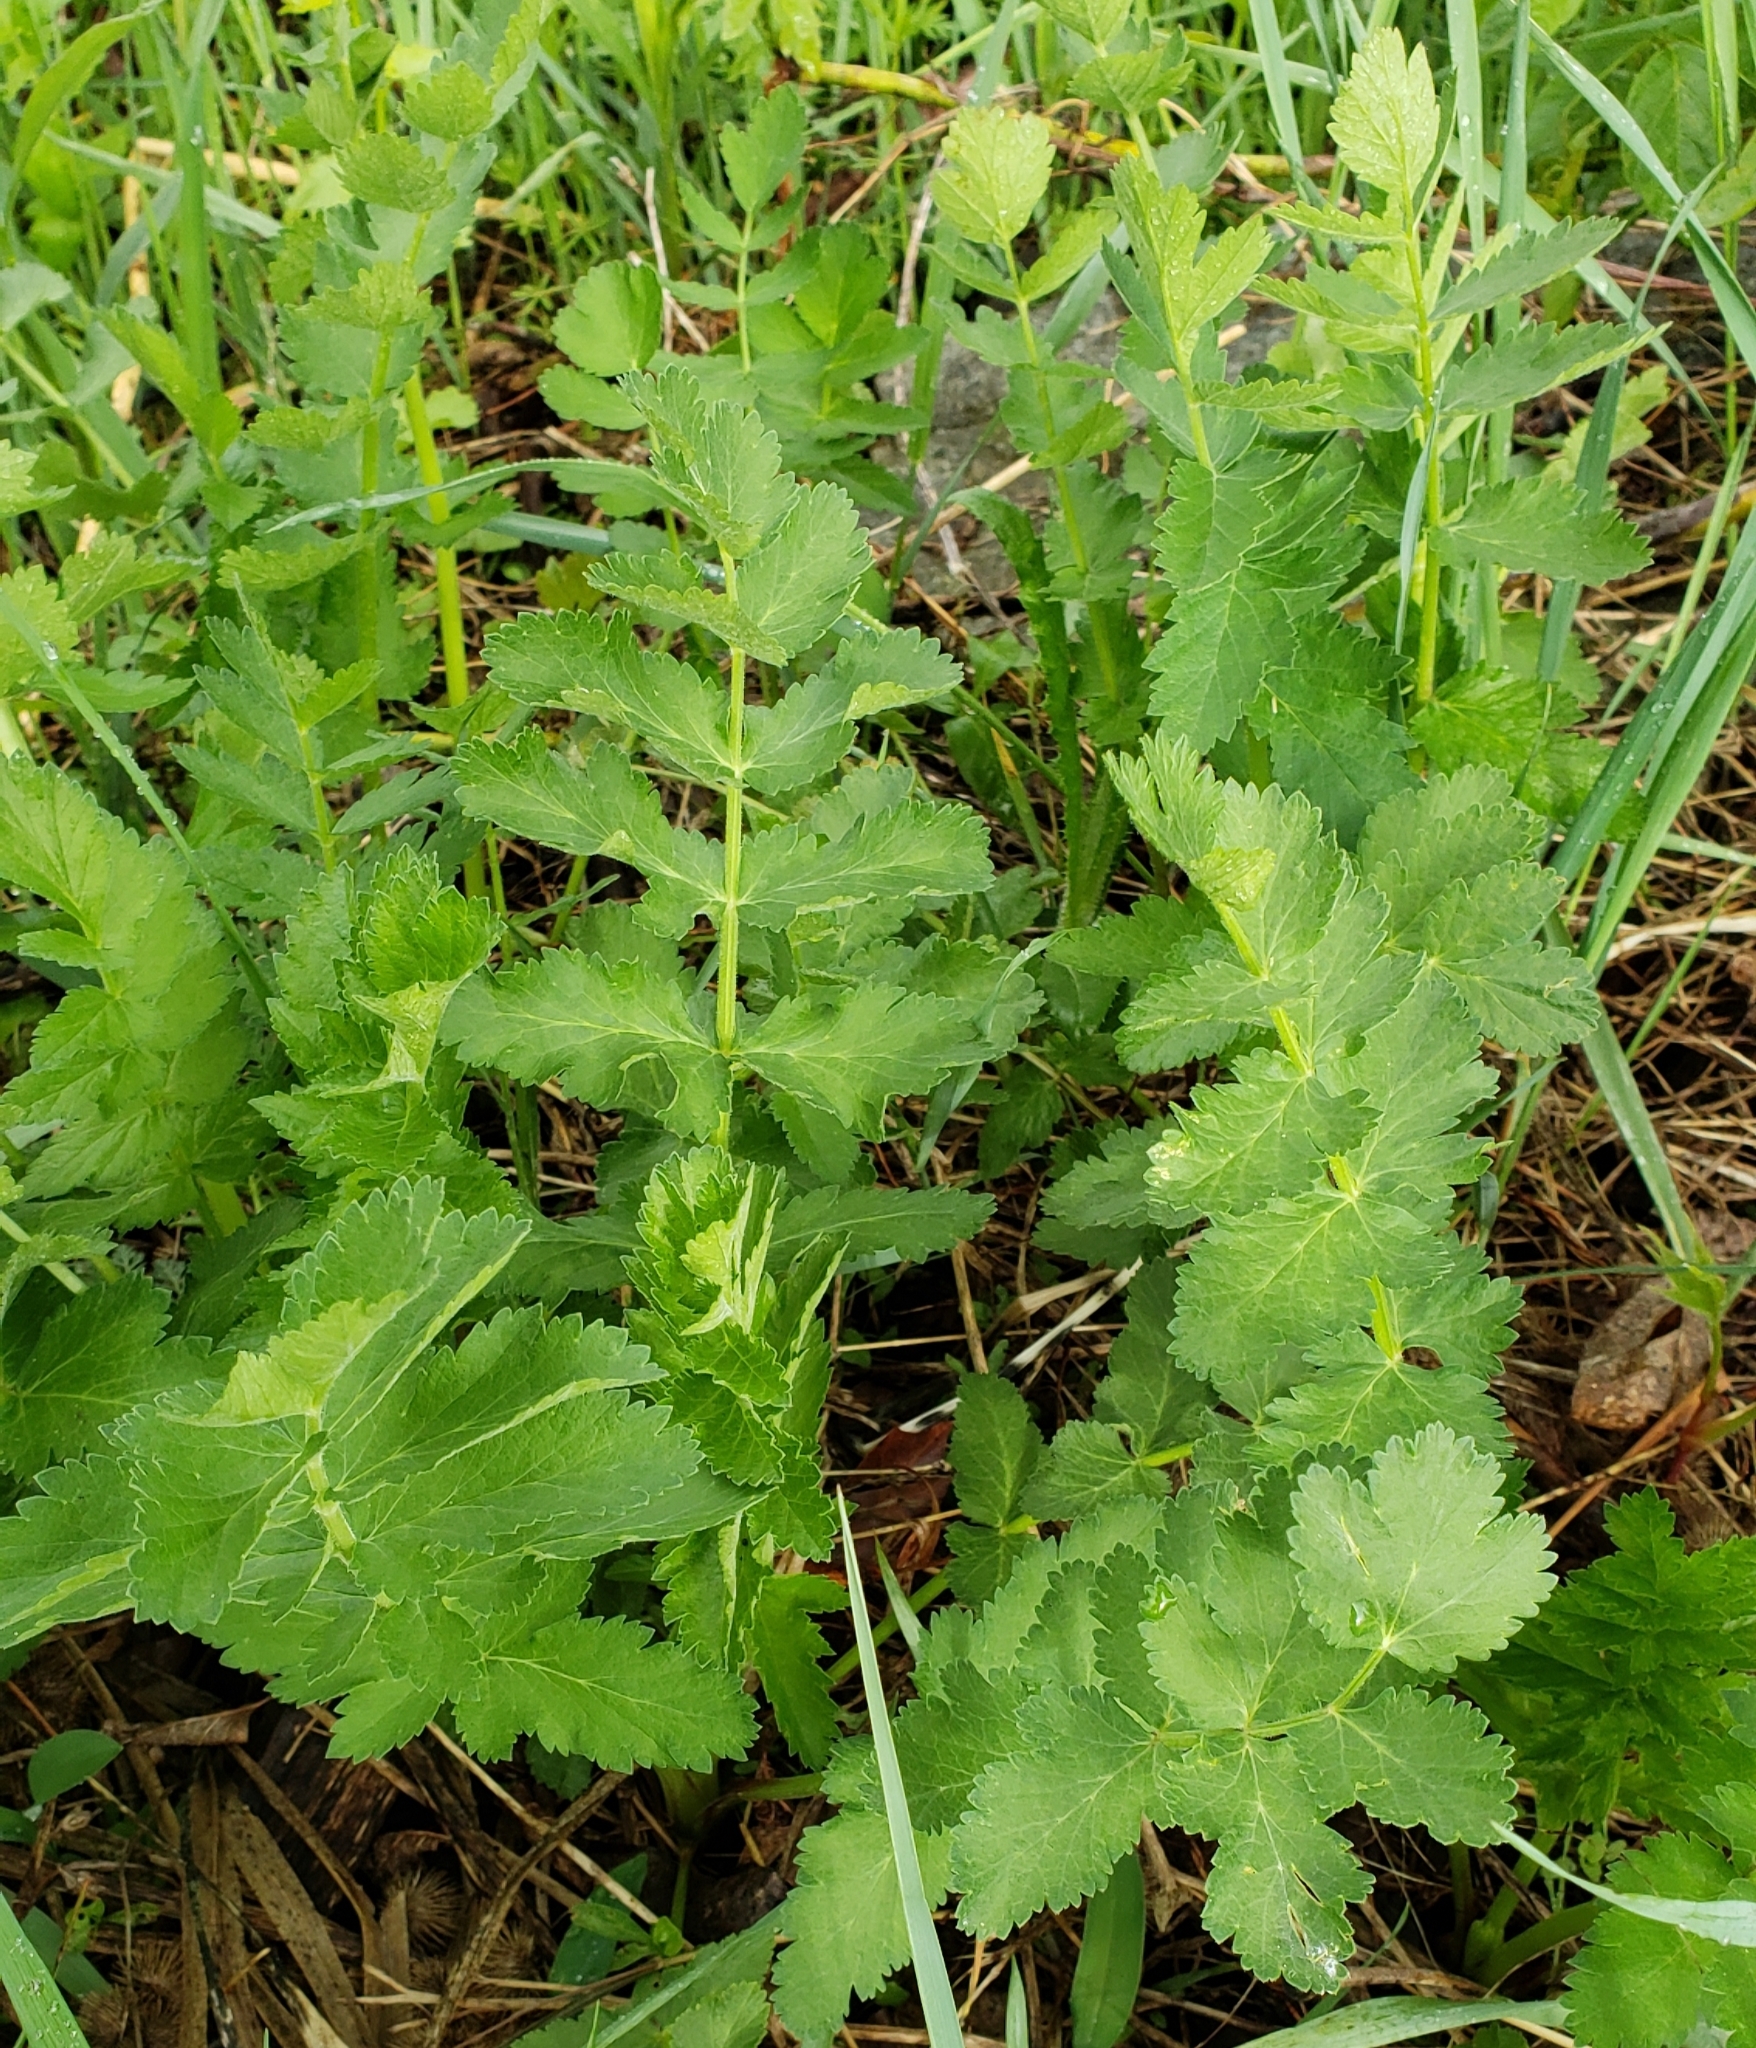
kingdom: Plantae
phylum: Tracheophyta
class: Magnoliopsida
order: Apiales
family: Apiaceae
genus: Pastinaca
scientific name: Pastinaca sativa
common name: Wild parsnip
